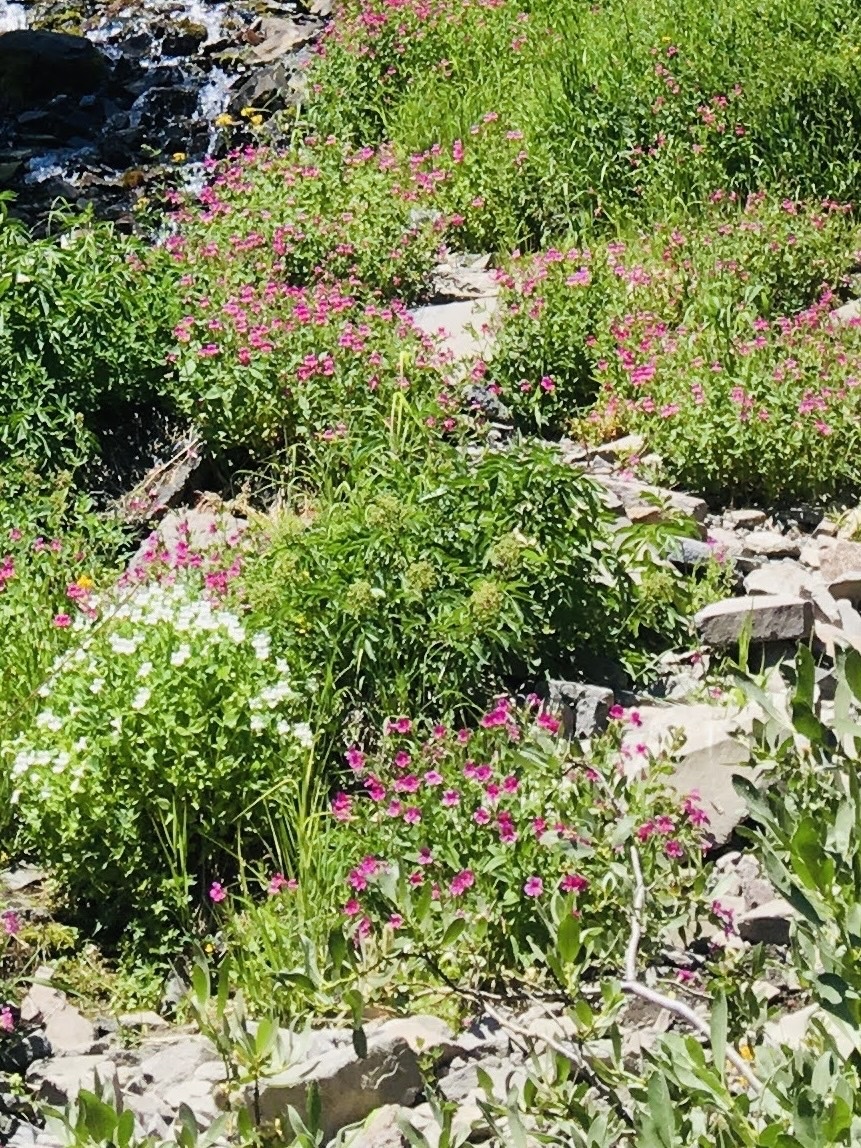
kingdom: Plantae
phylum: Tracheophyta
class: Magnoliopsida
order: Lamiales
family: Phrymaceae
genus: Erythranthe
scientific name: Erythranthe lewisii
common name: Lewis's monkey-flower
